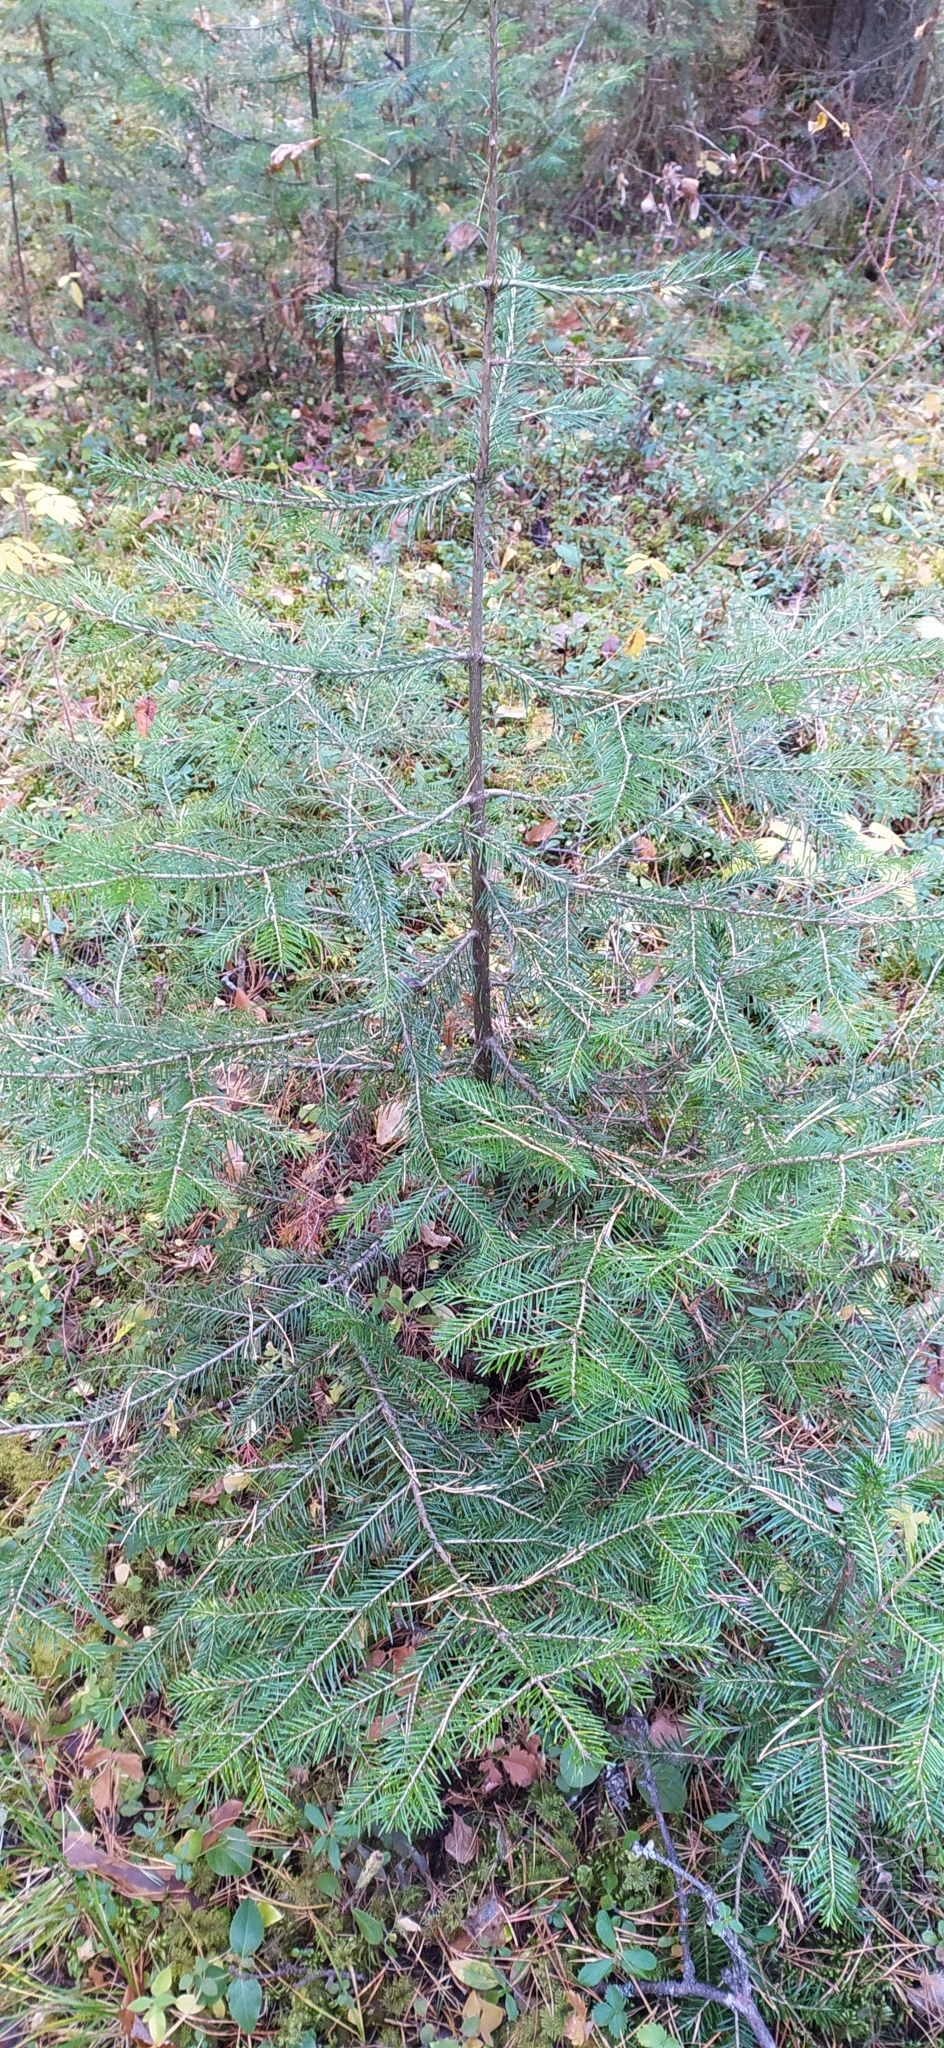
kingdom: Plantae
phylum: Tracheophyta
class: Pinopsida
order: Pinales
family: Pinaceae
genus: Abies
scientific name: Abies sibirica
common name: Siberian fir
